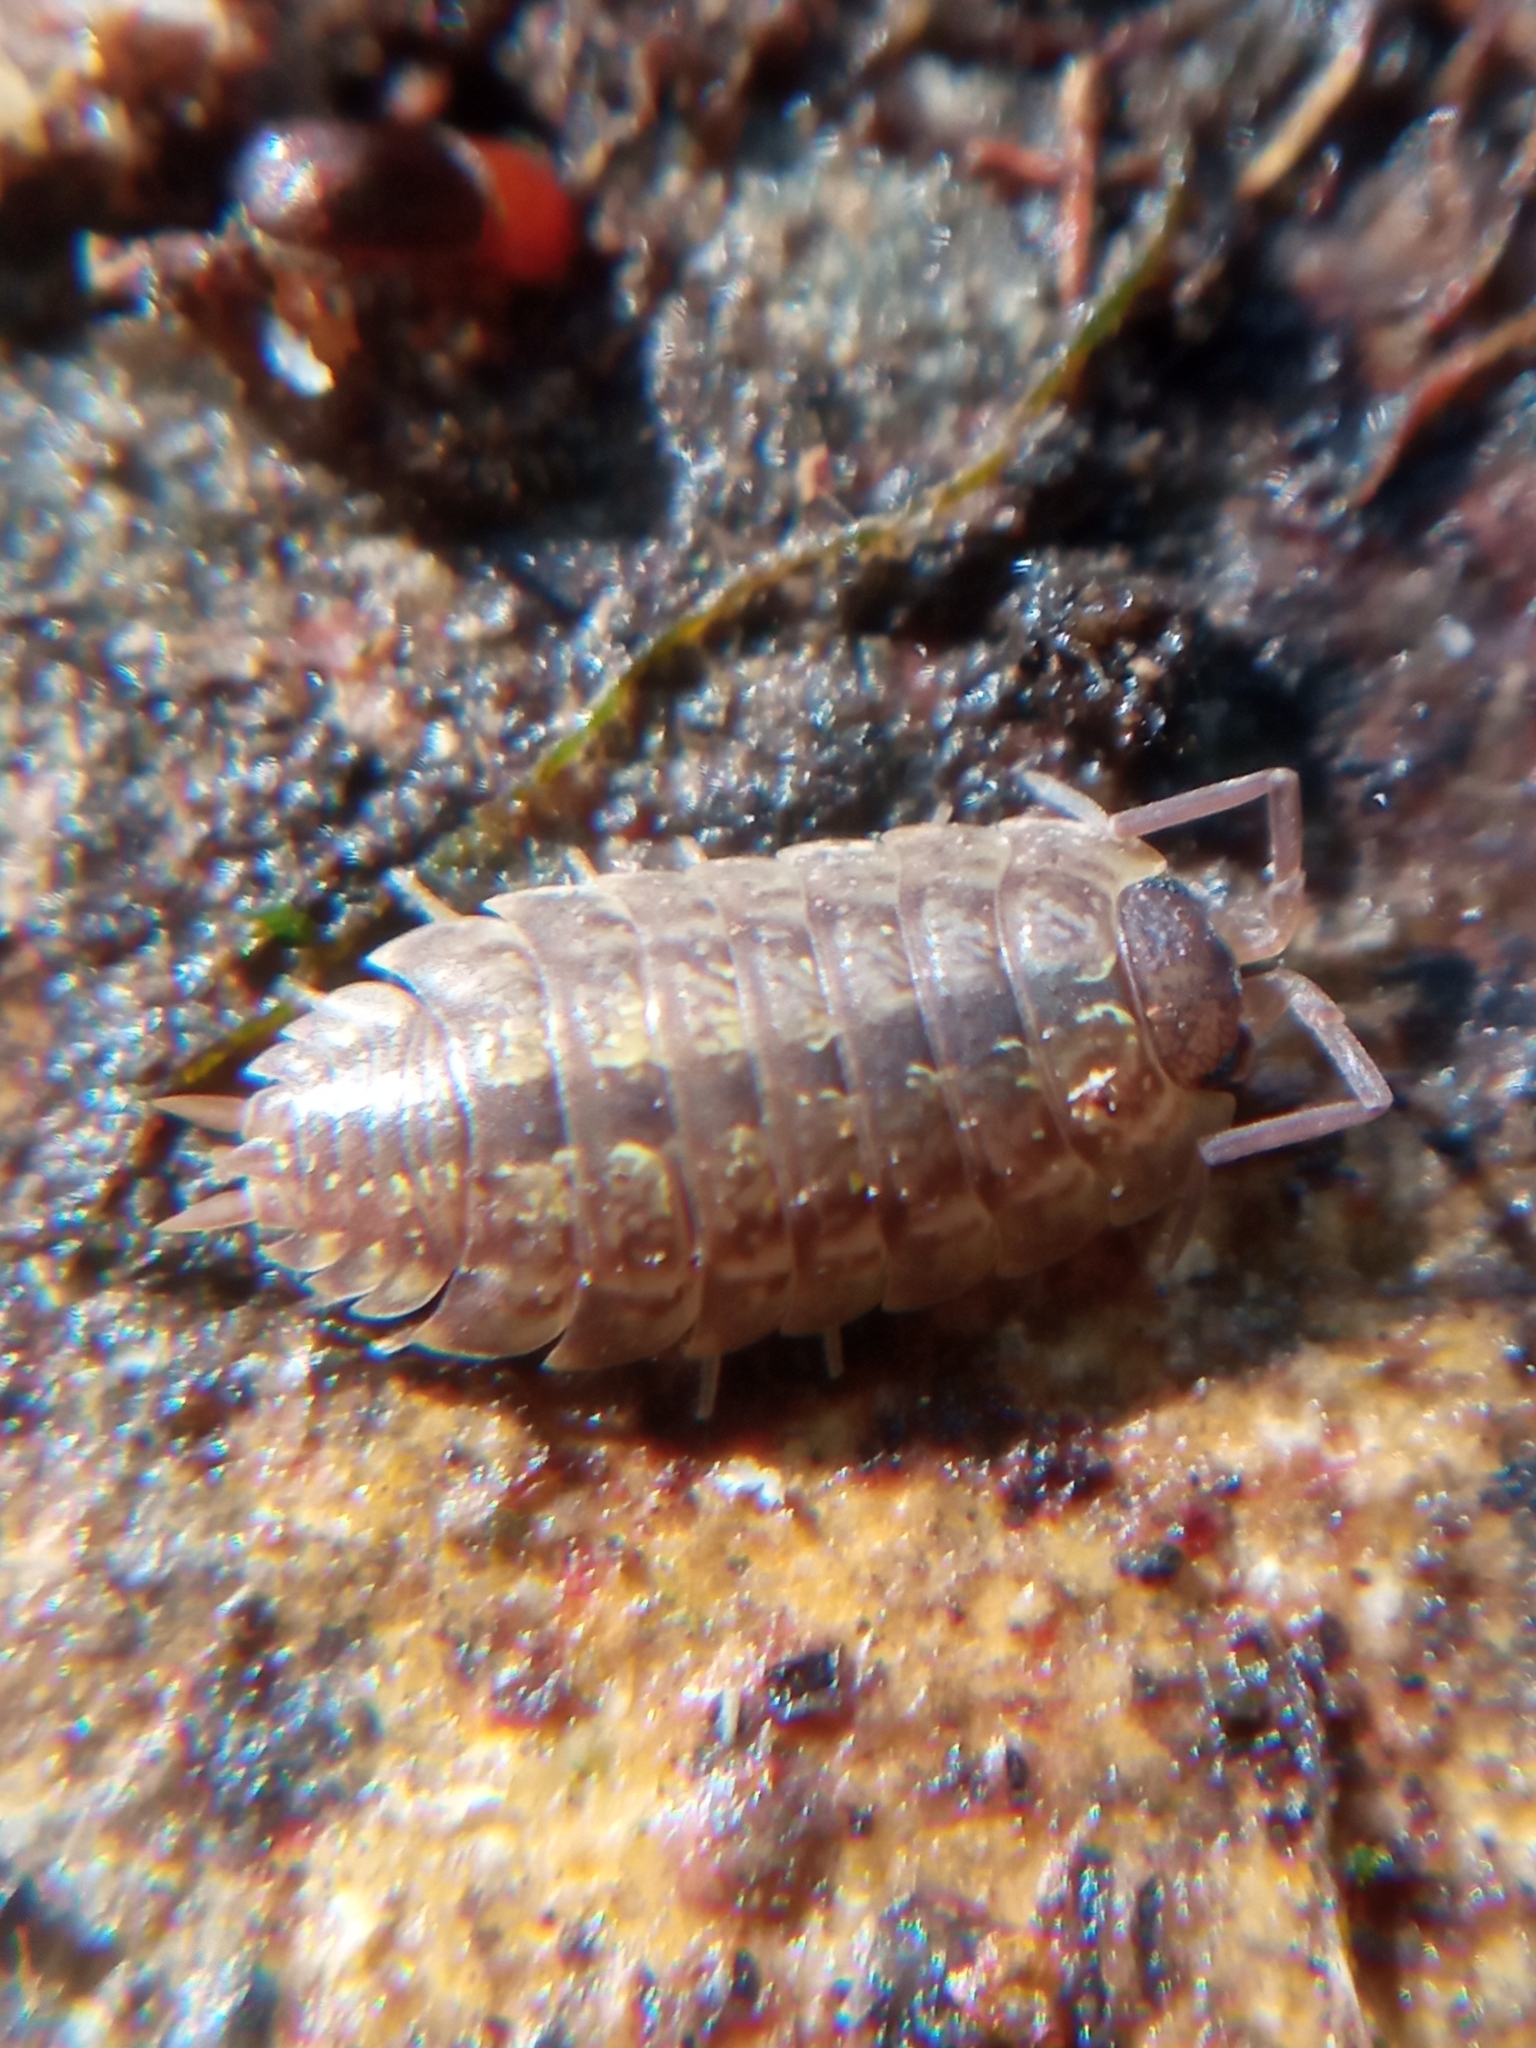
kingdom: Animalia
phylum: Arthropoda
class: Malacostraca
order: Isopoda
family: Porcellionidae
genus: Porcellio
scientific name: Porcellio monticola
